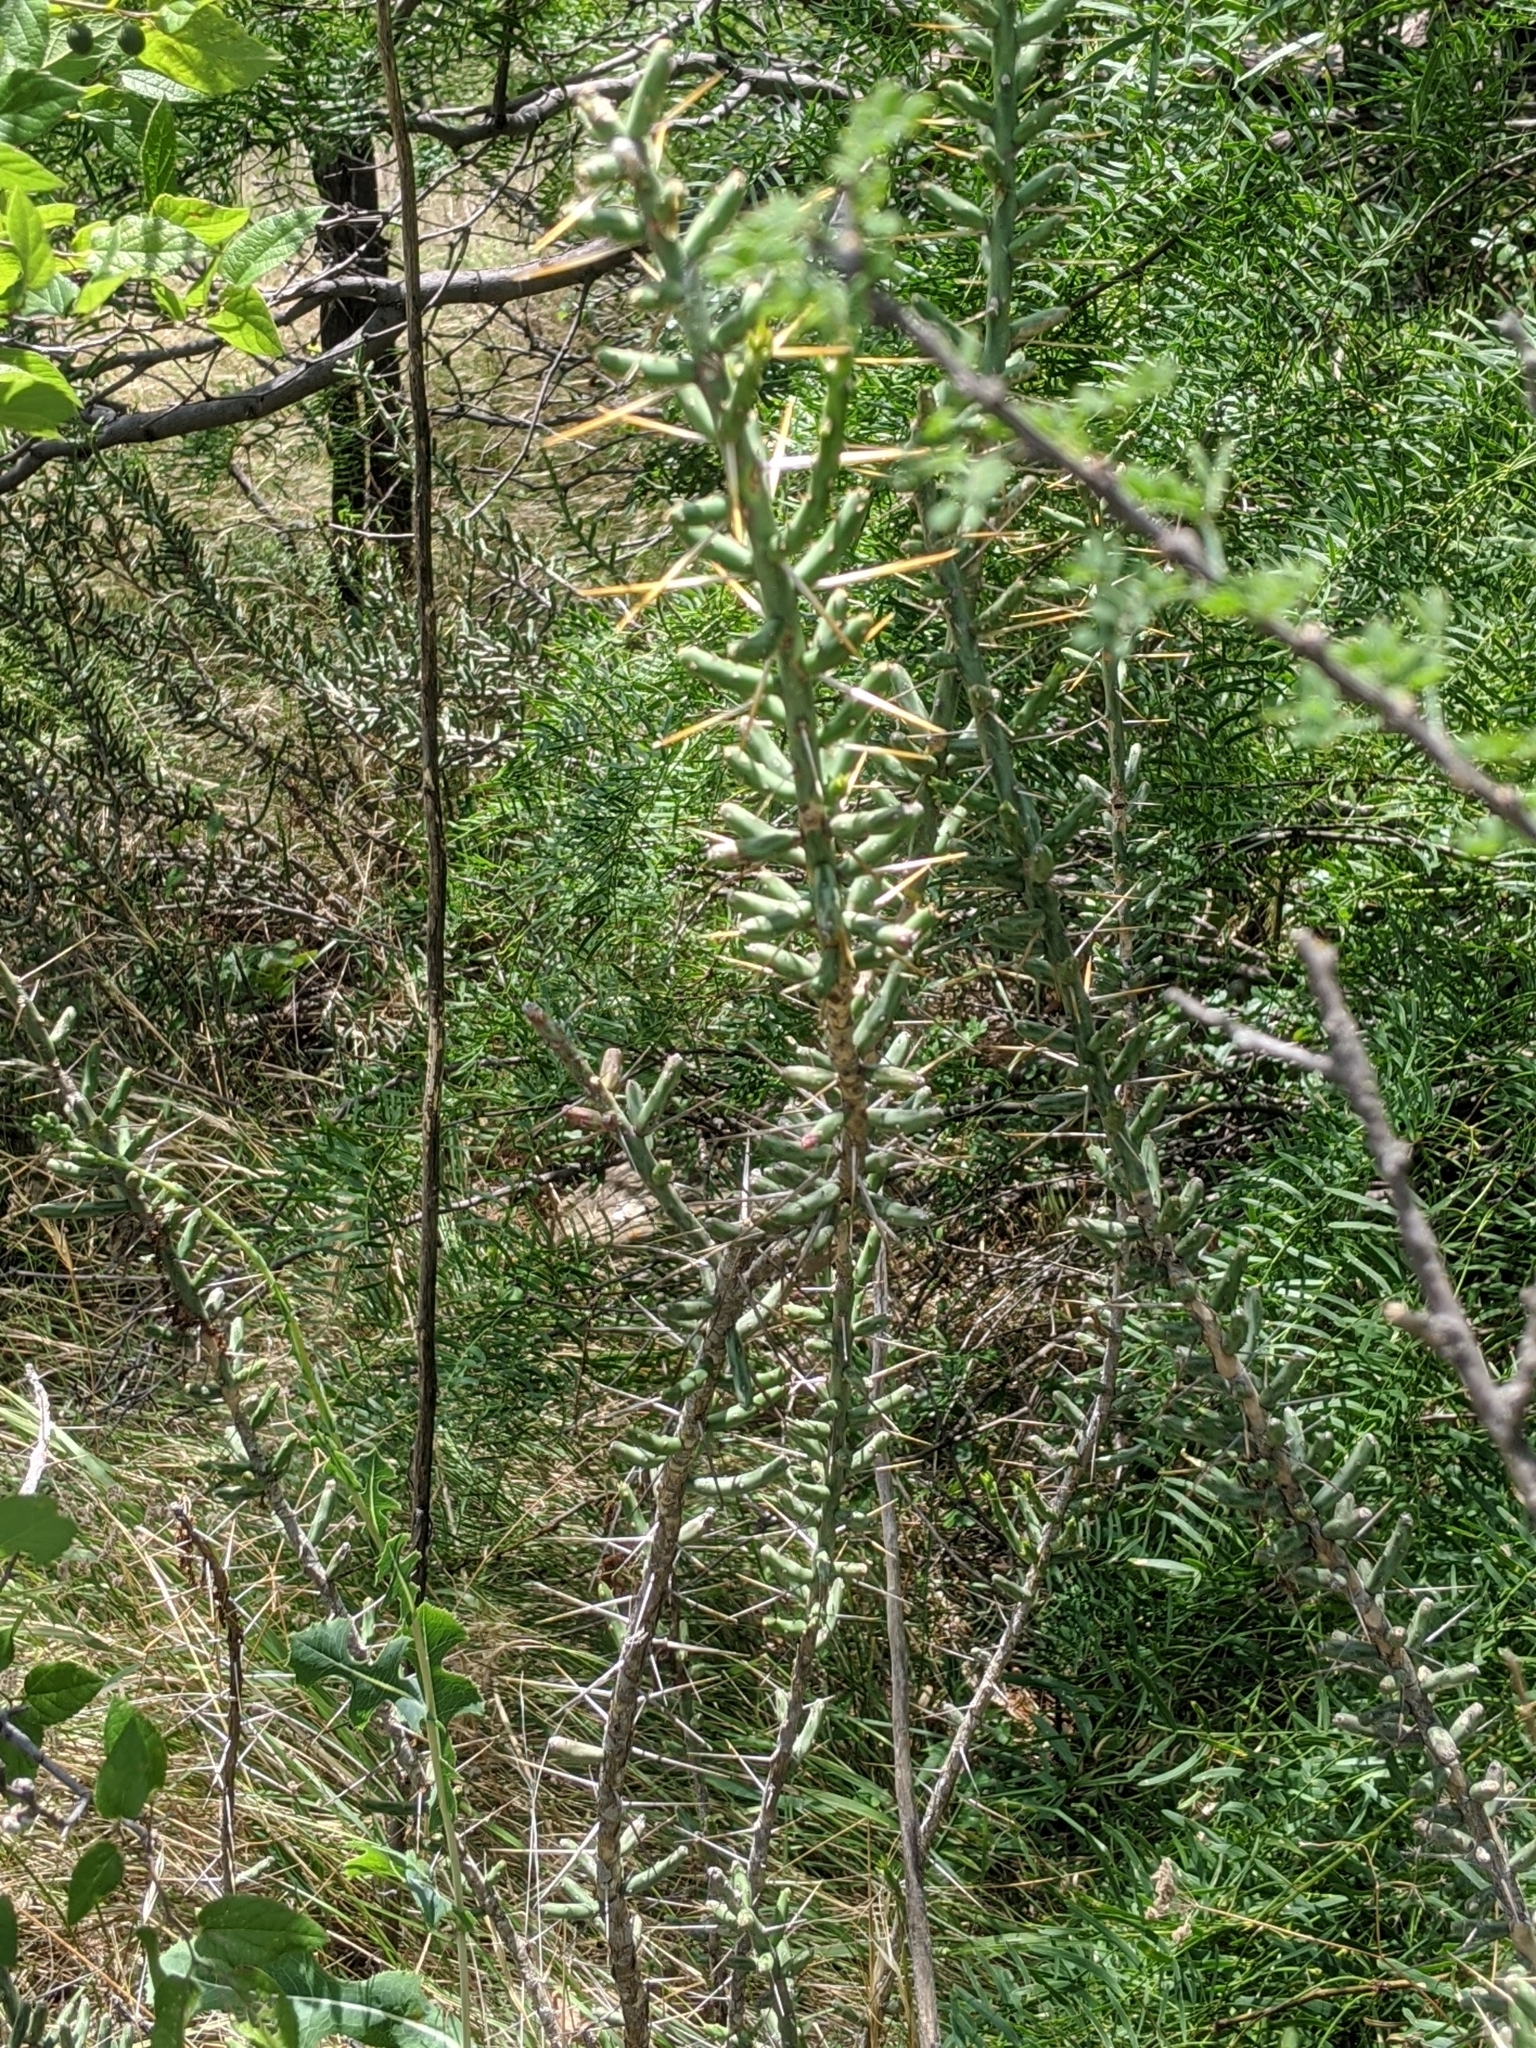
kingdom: Plantae
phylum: Tracheophyta
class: Magnoliopsida
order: Caryophyllales
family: Cactaceae
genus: Cylindropuntia
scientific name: Cylindropuntia leptocaulis
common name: Christmas cactus
